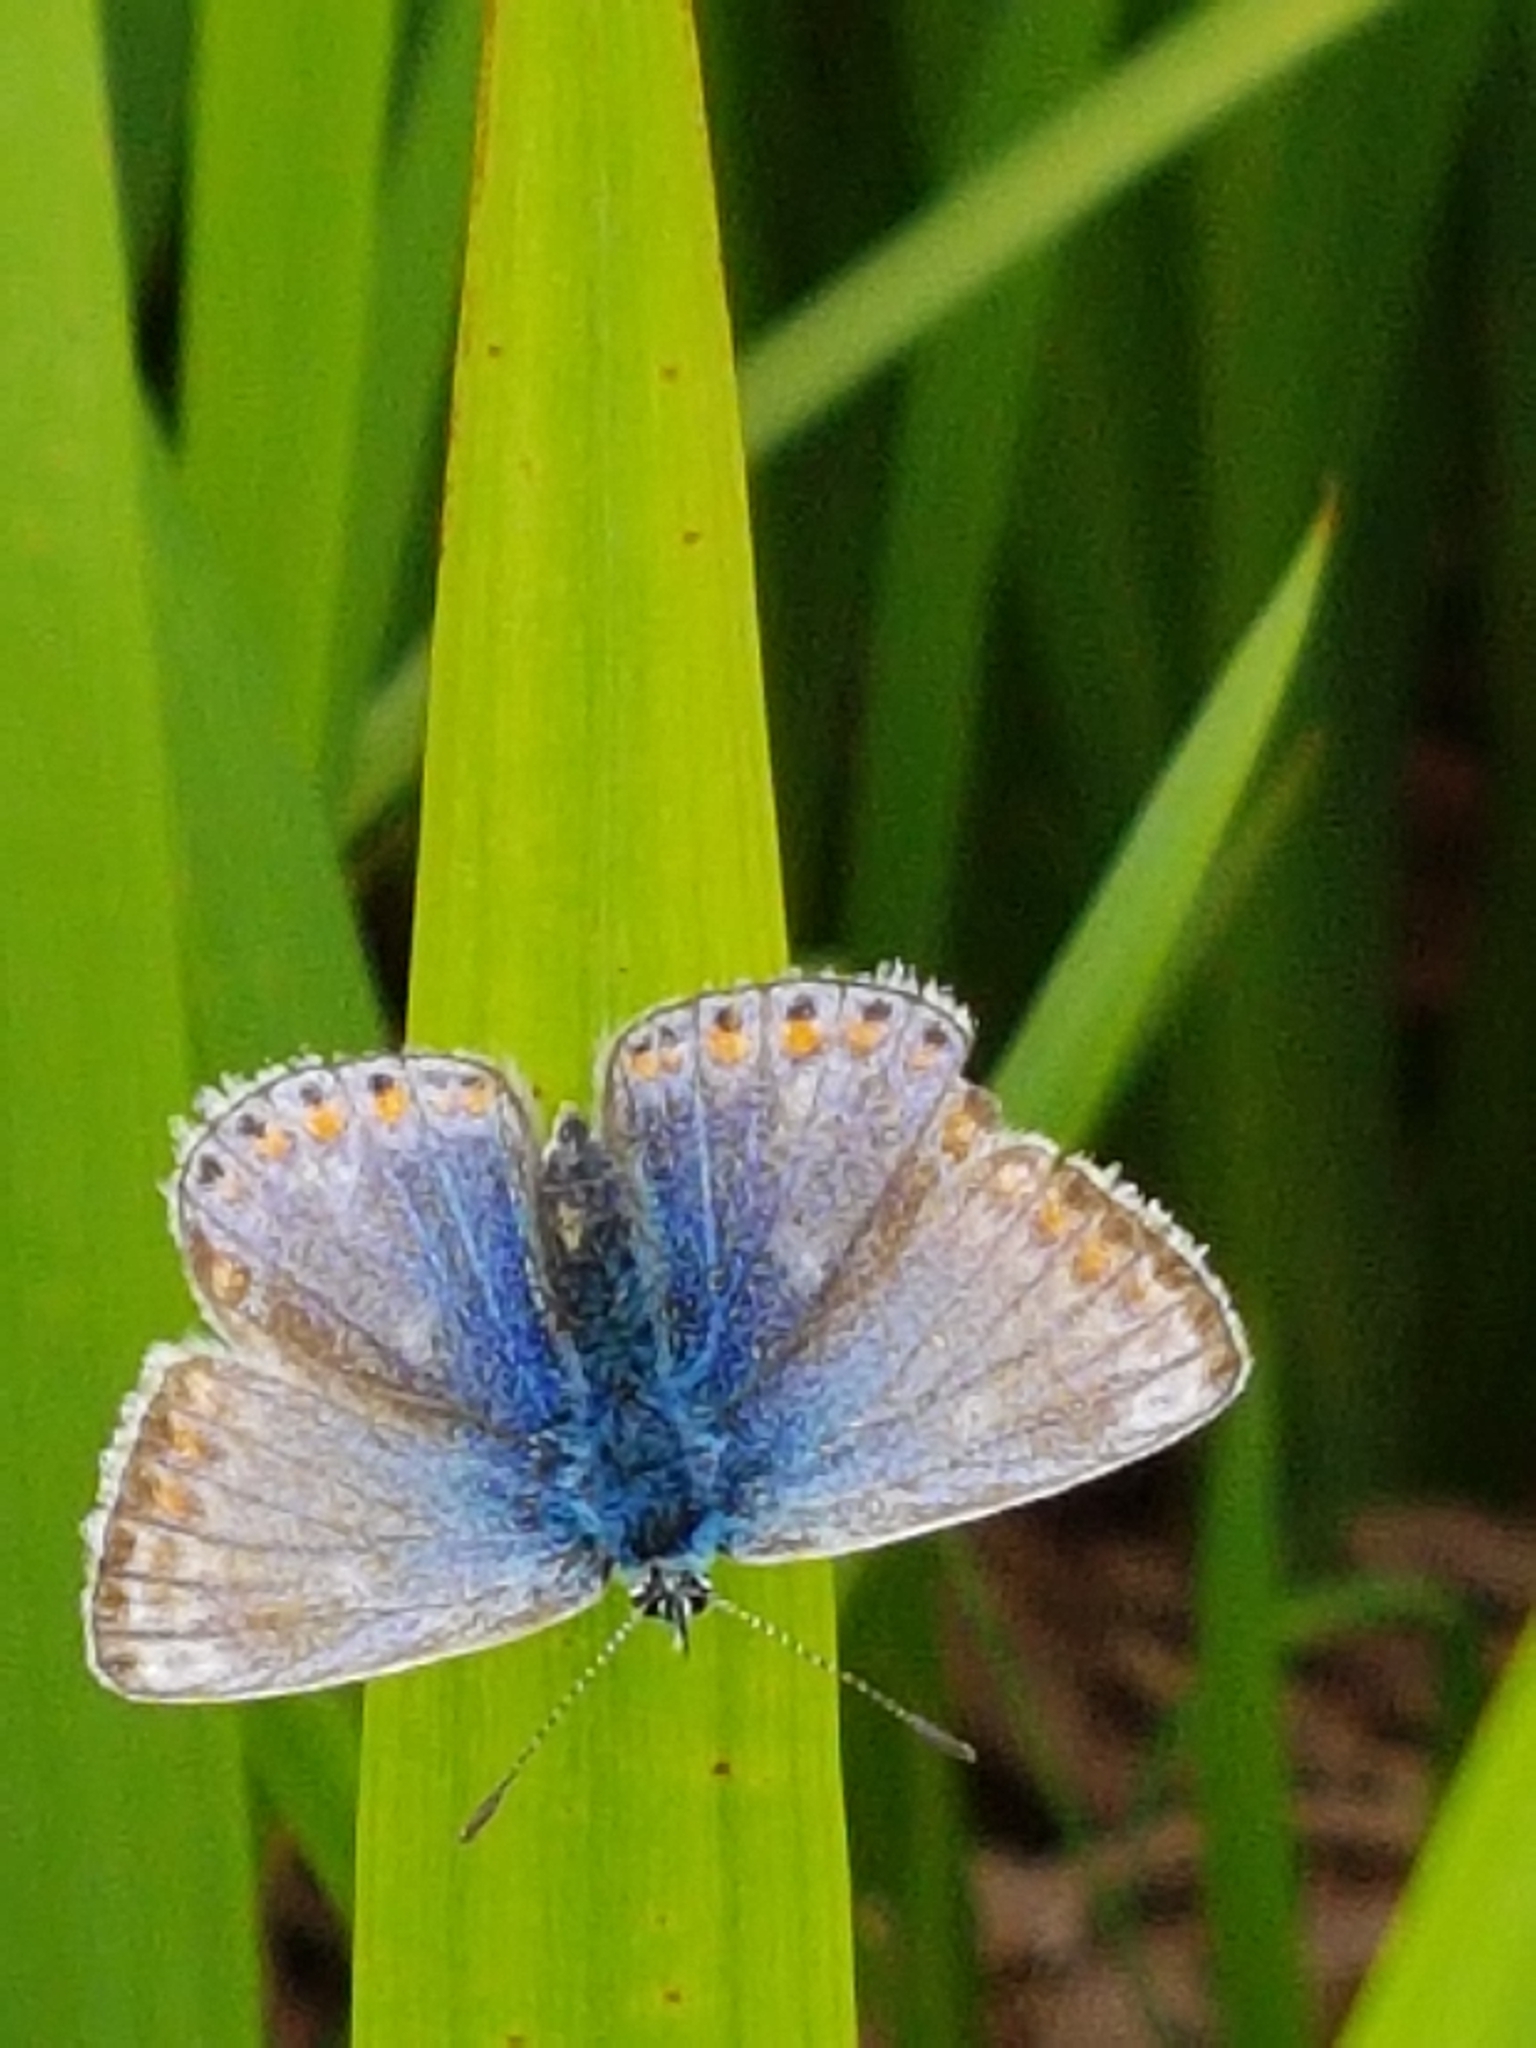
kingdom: Animalia
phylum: Arthropoda
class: Insecta
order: Lepidoptera
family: Lycaenidae
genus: Polyommatus
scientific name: Polyommatus icarus
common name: Common blue
